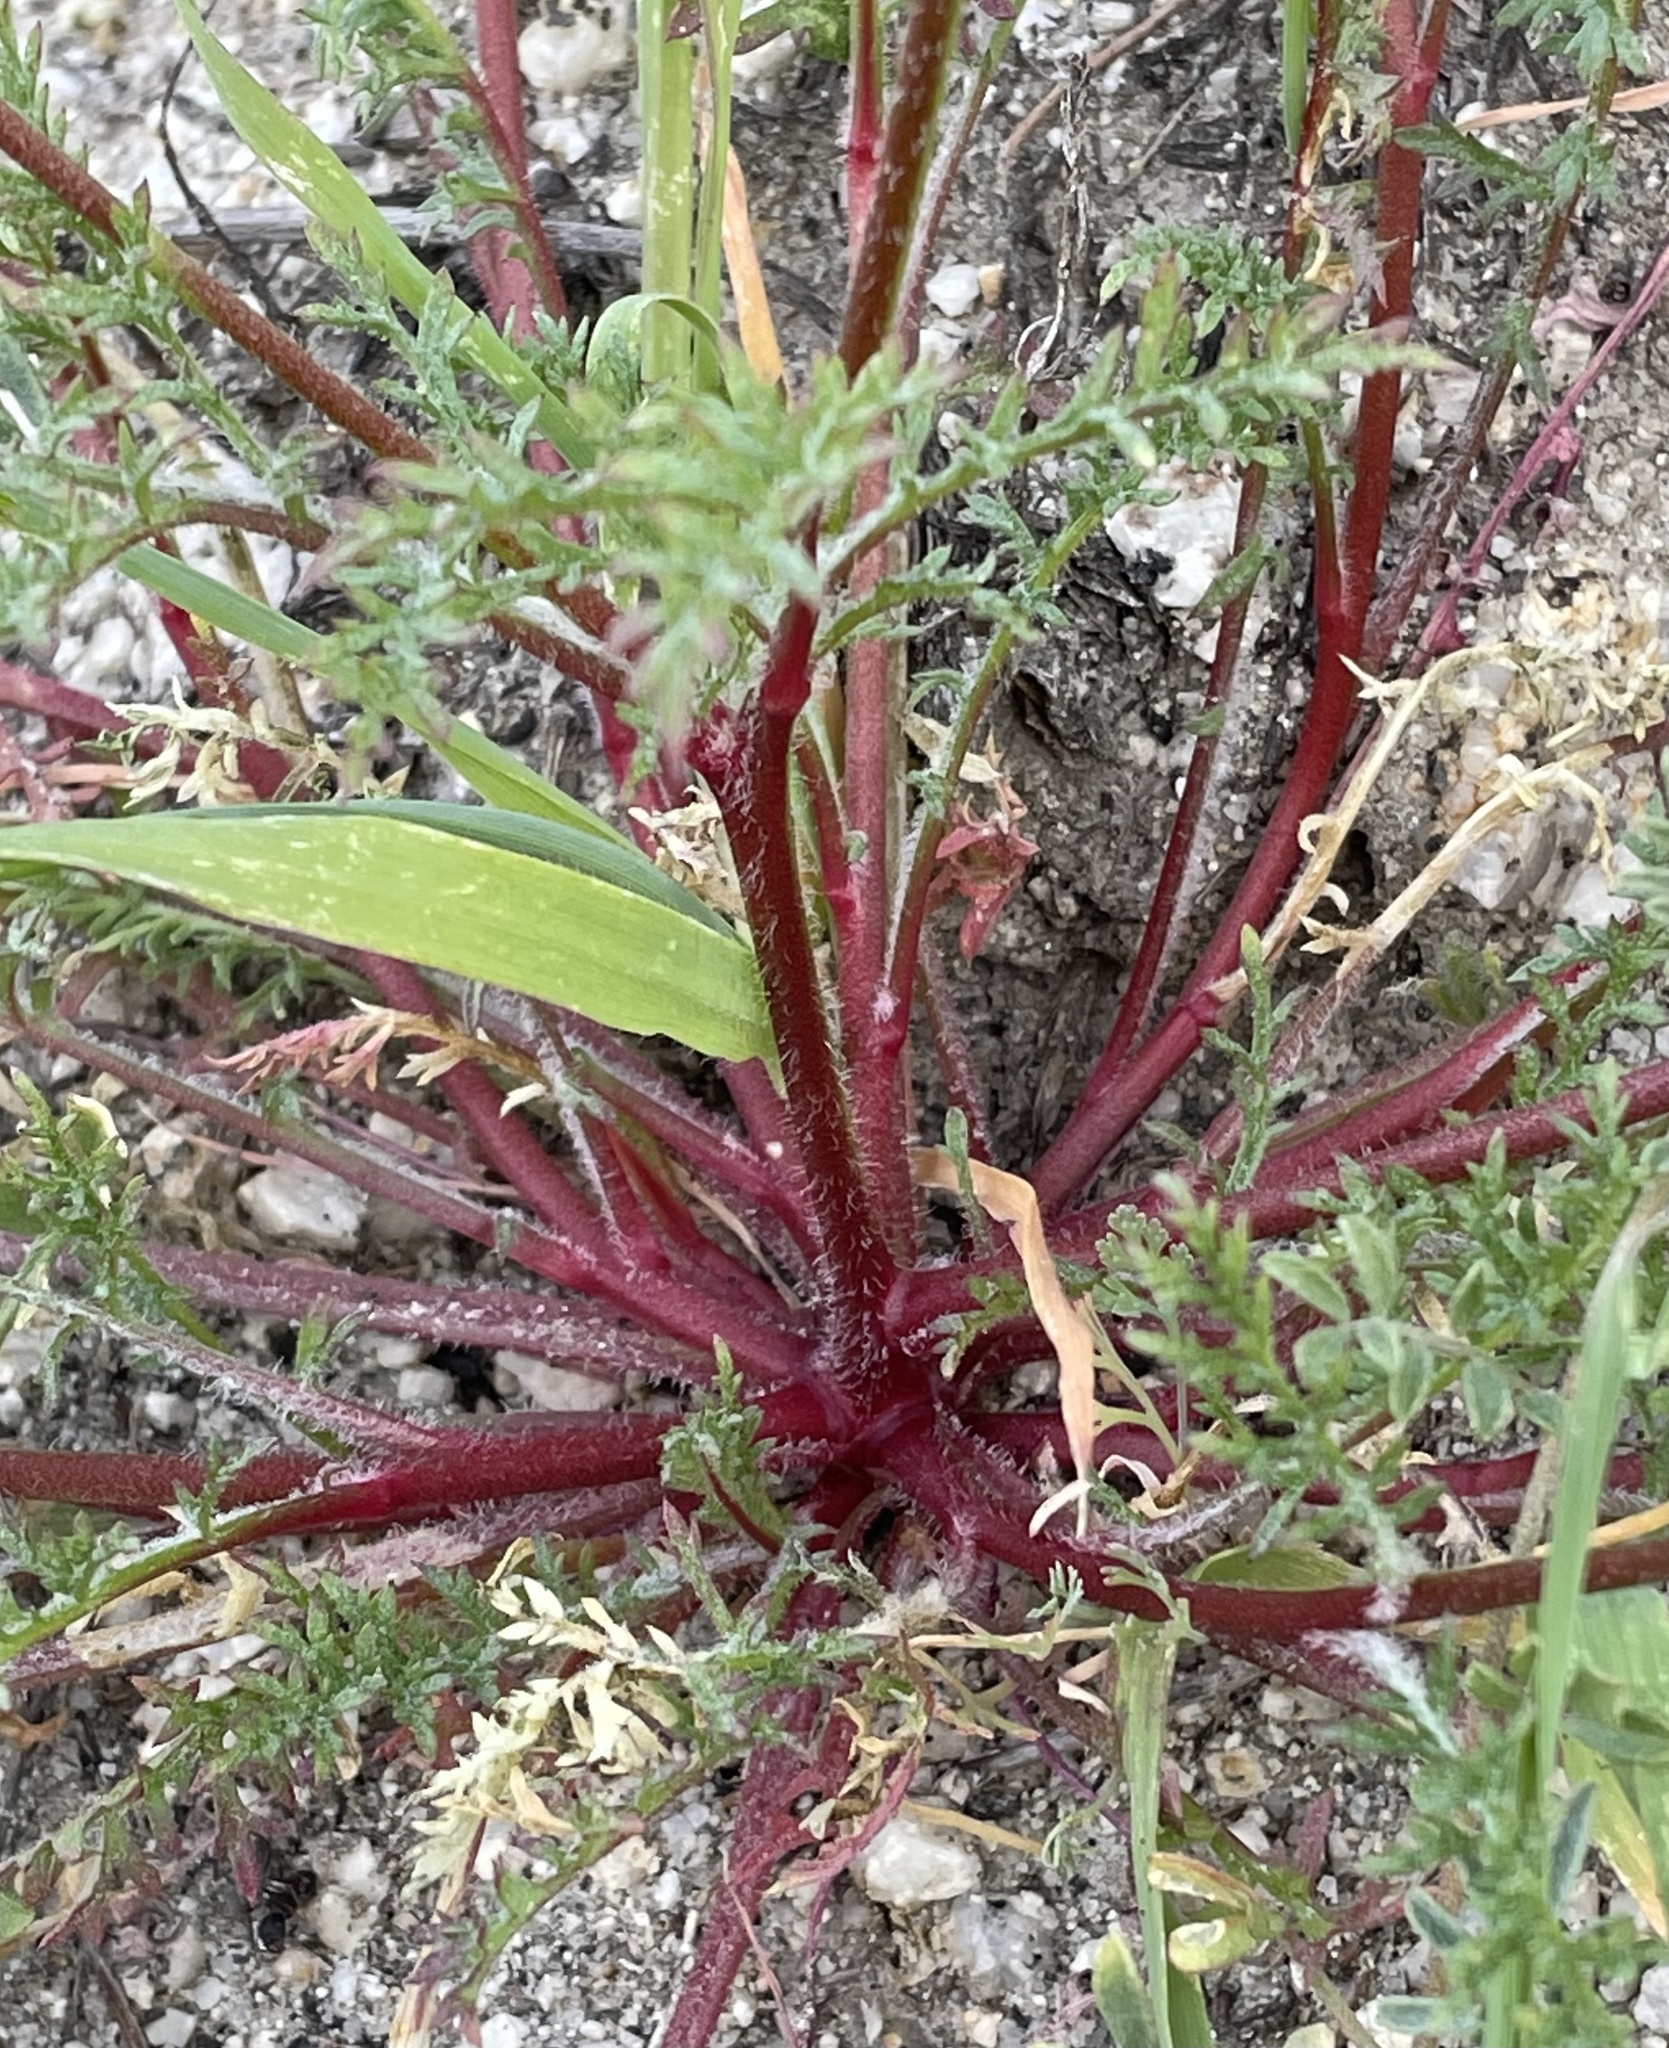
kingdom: Plantae
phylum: Tracheophyta
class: Magnoliopsida
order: Ericales
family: Polemoniaceae
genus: Gilia
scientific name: Gilia achilleifolia
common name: California gily-flower
